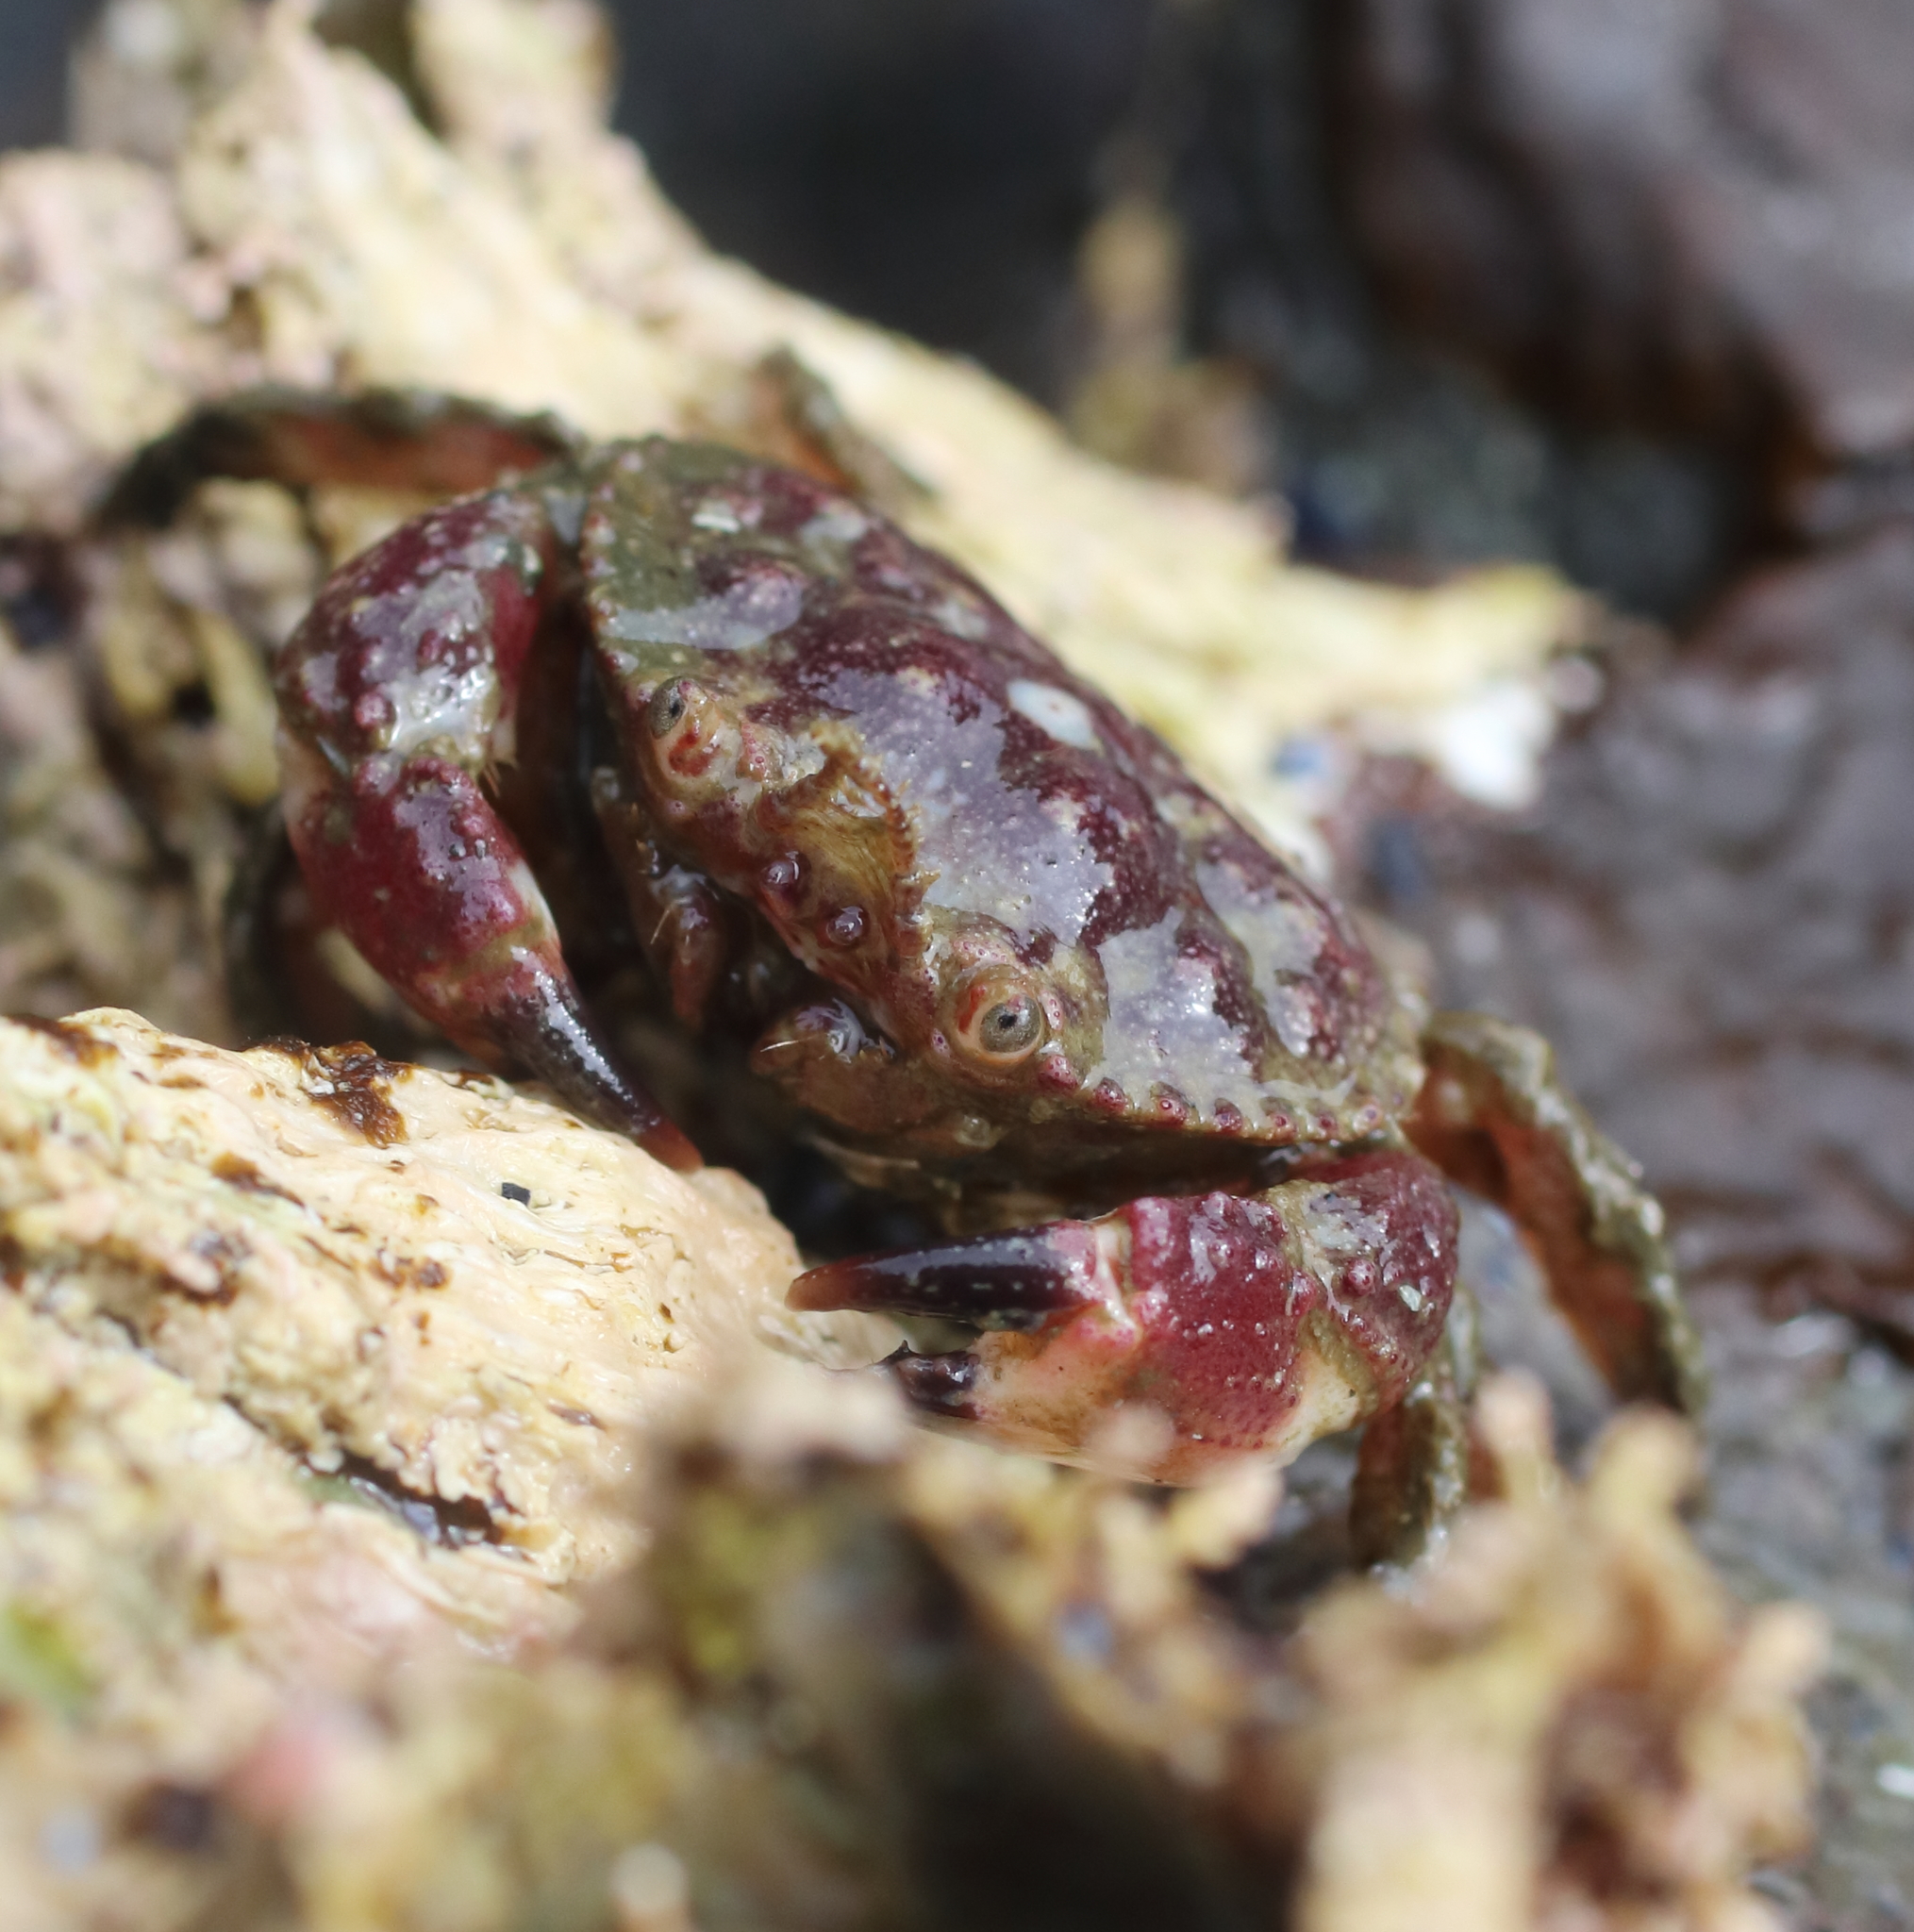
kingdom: Animalia
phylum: Arthropoda
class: Malacostraca
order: Decapoda
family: Cancridae
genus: Glebocarcinus
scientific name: Glebocarcinus oregonensis
